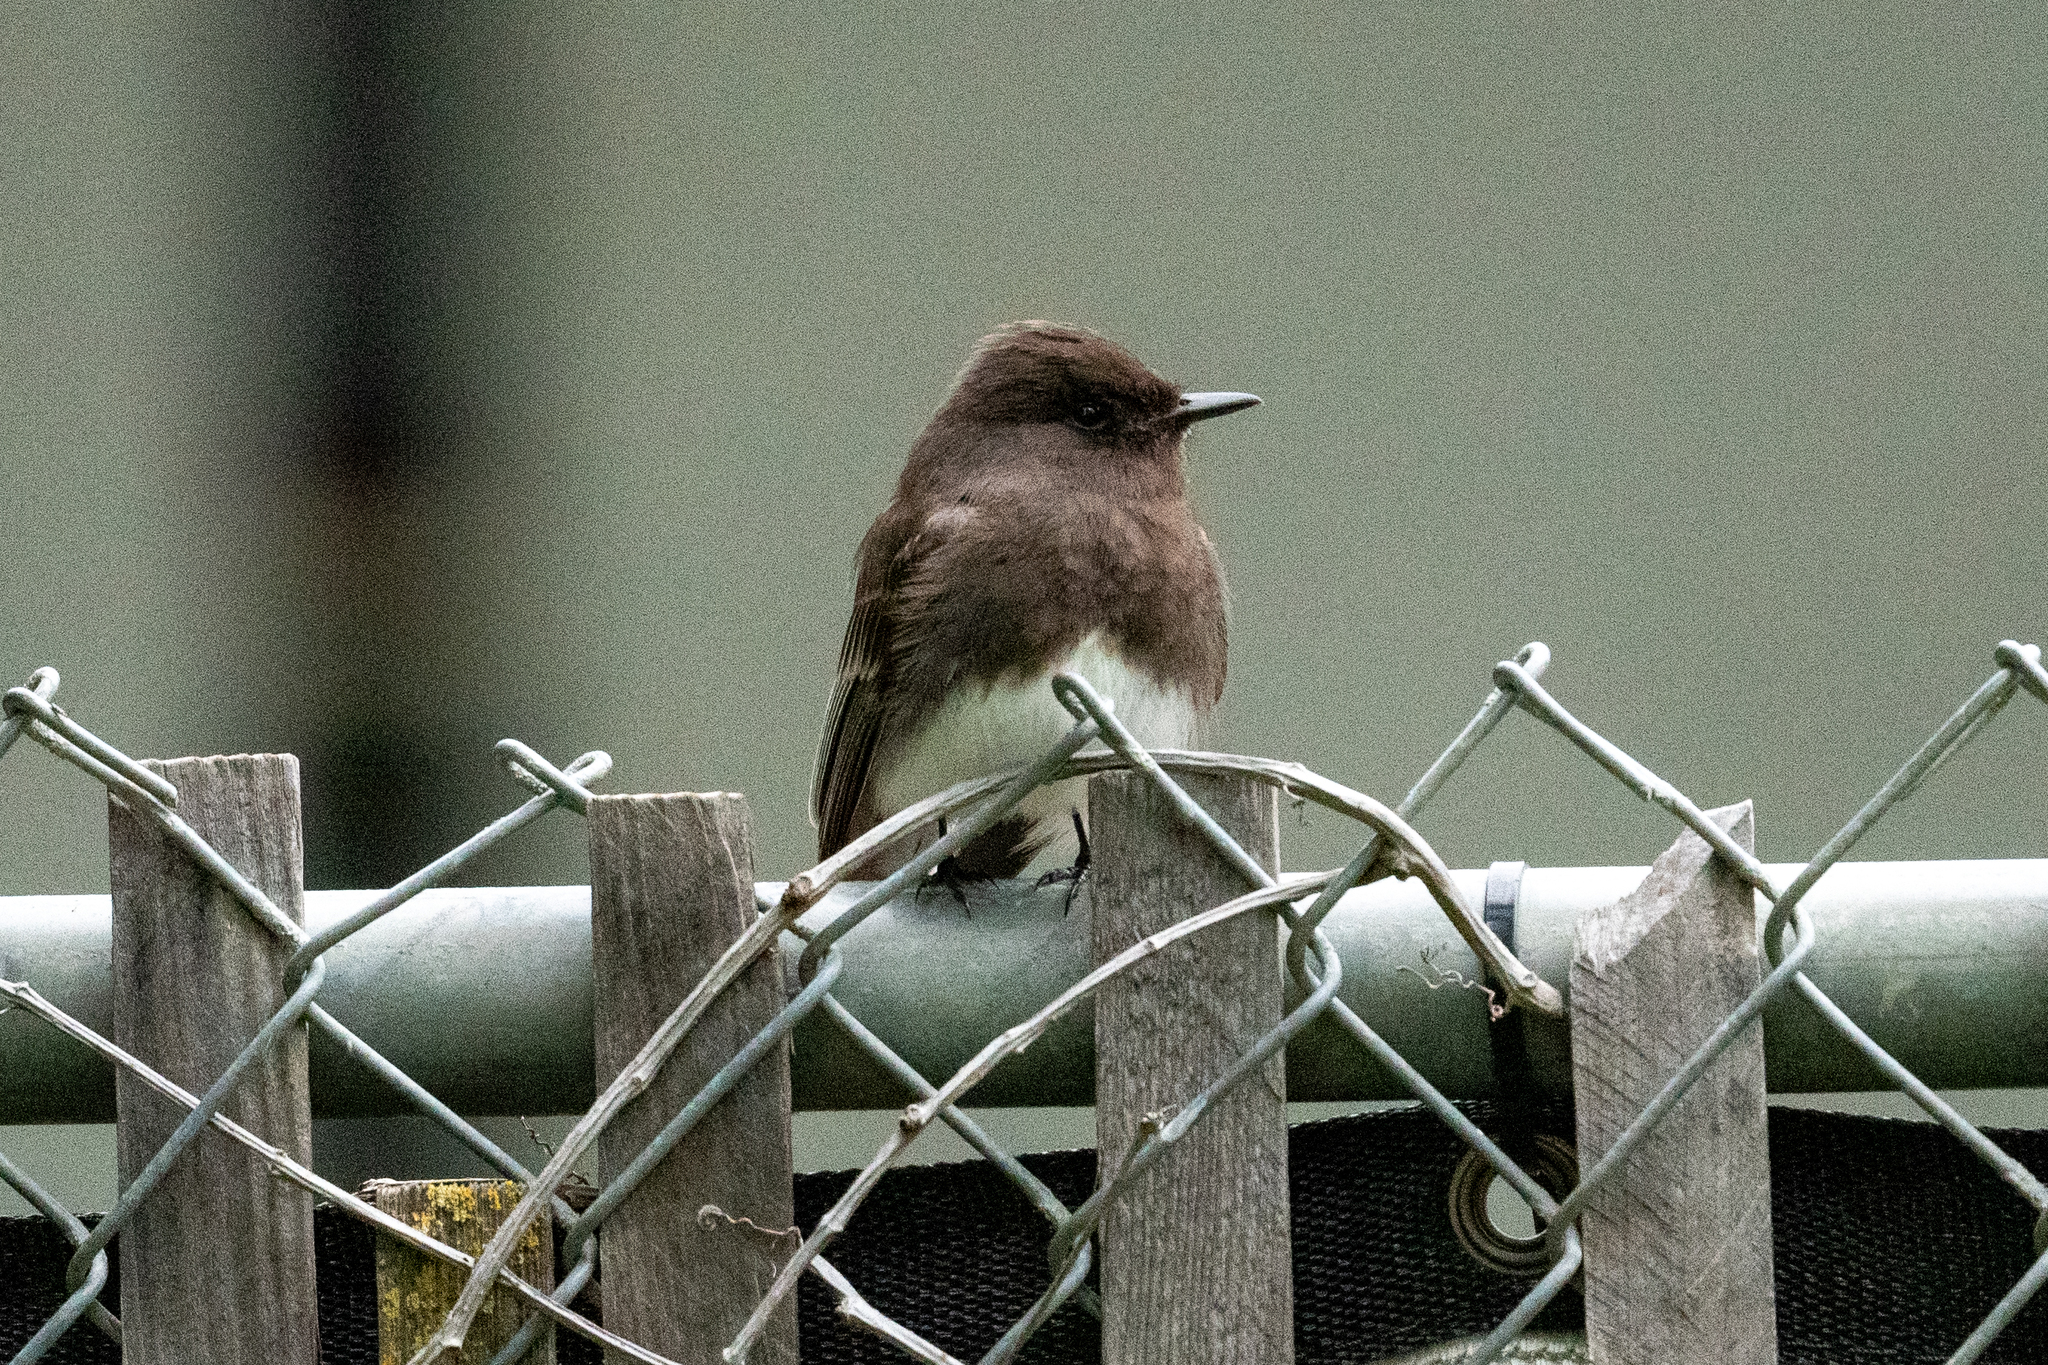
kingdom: Animalia
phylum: Chordata
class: Aves
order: Passeriformes
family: Tyrannidae
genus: Sayornis
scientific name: Sayornis nigricans
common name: Black phoebe
